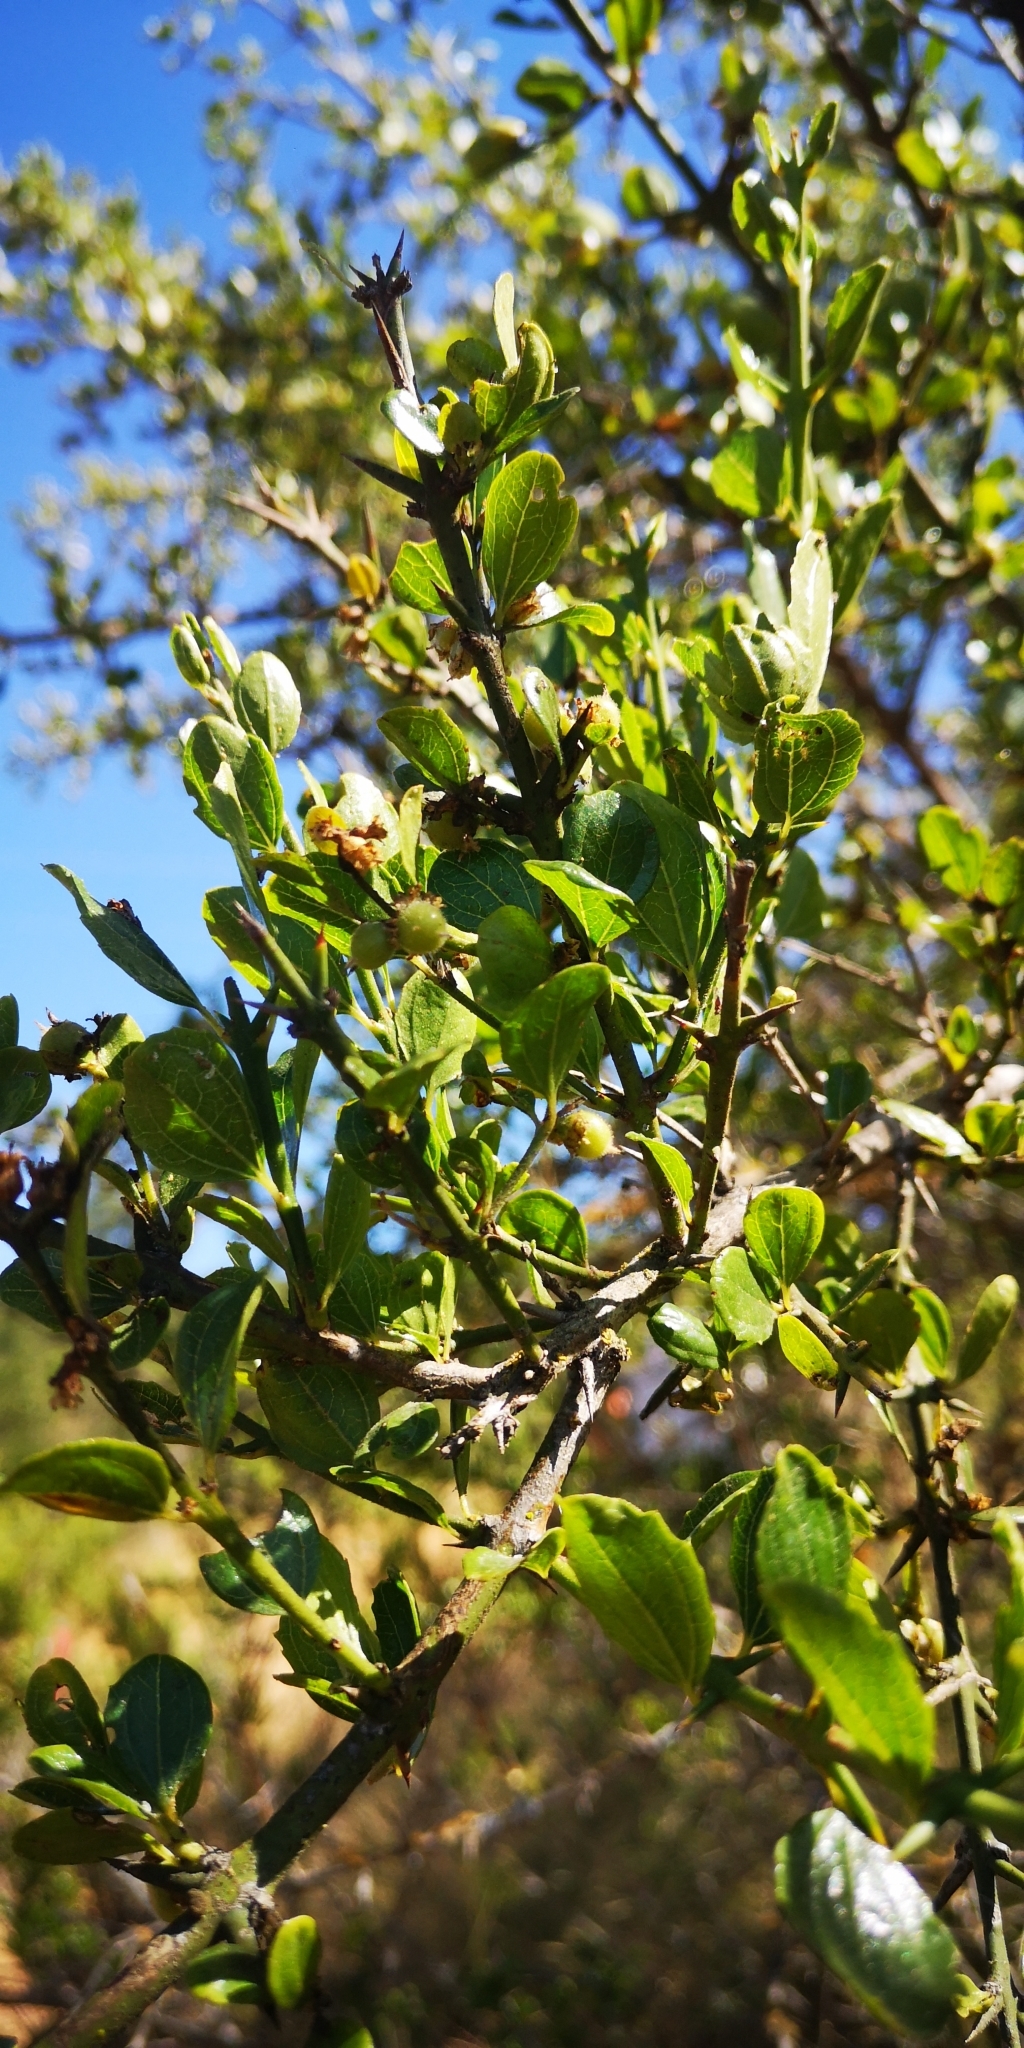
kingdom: Plantae
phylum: Tracheophyta
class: Magnoliopsida
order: Rosales
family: Rhamnaceae
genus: Retanilla
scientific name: Retanilla trinervia
